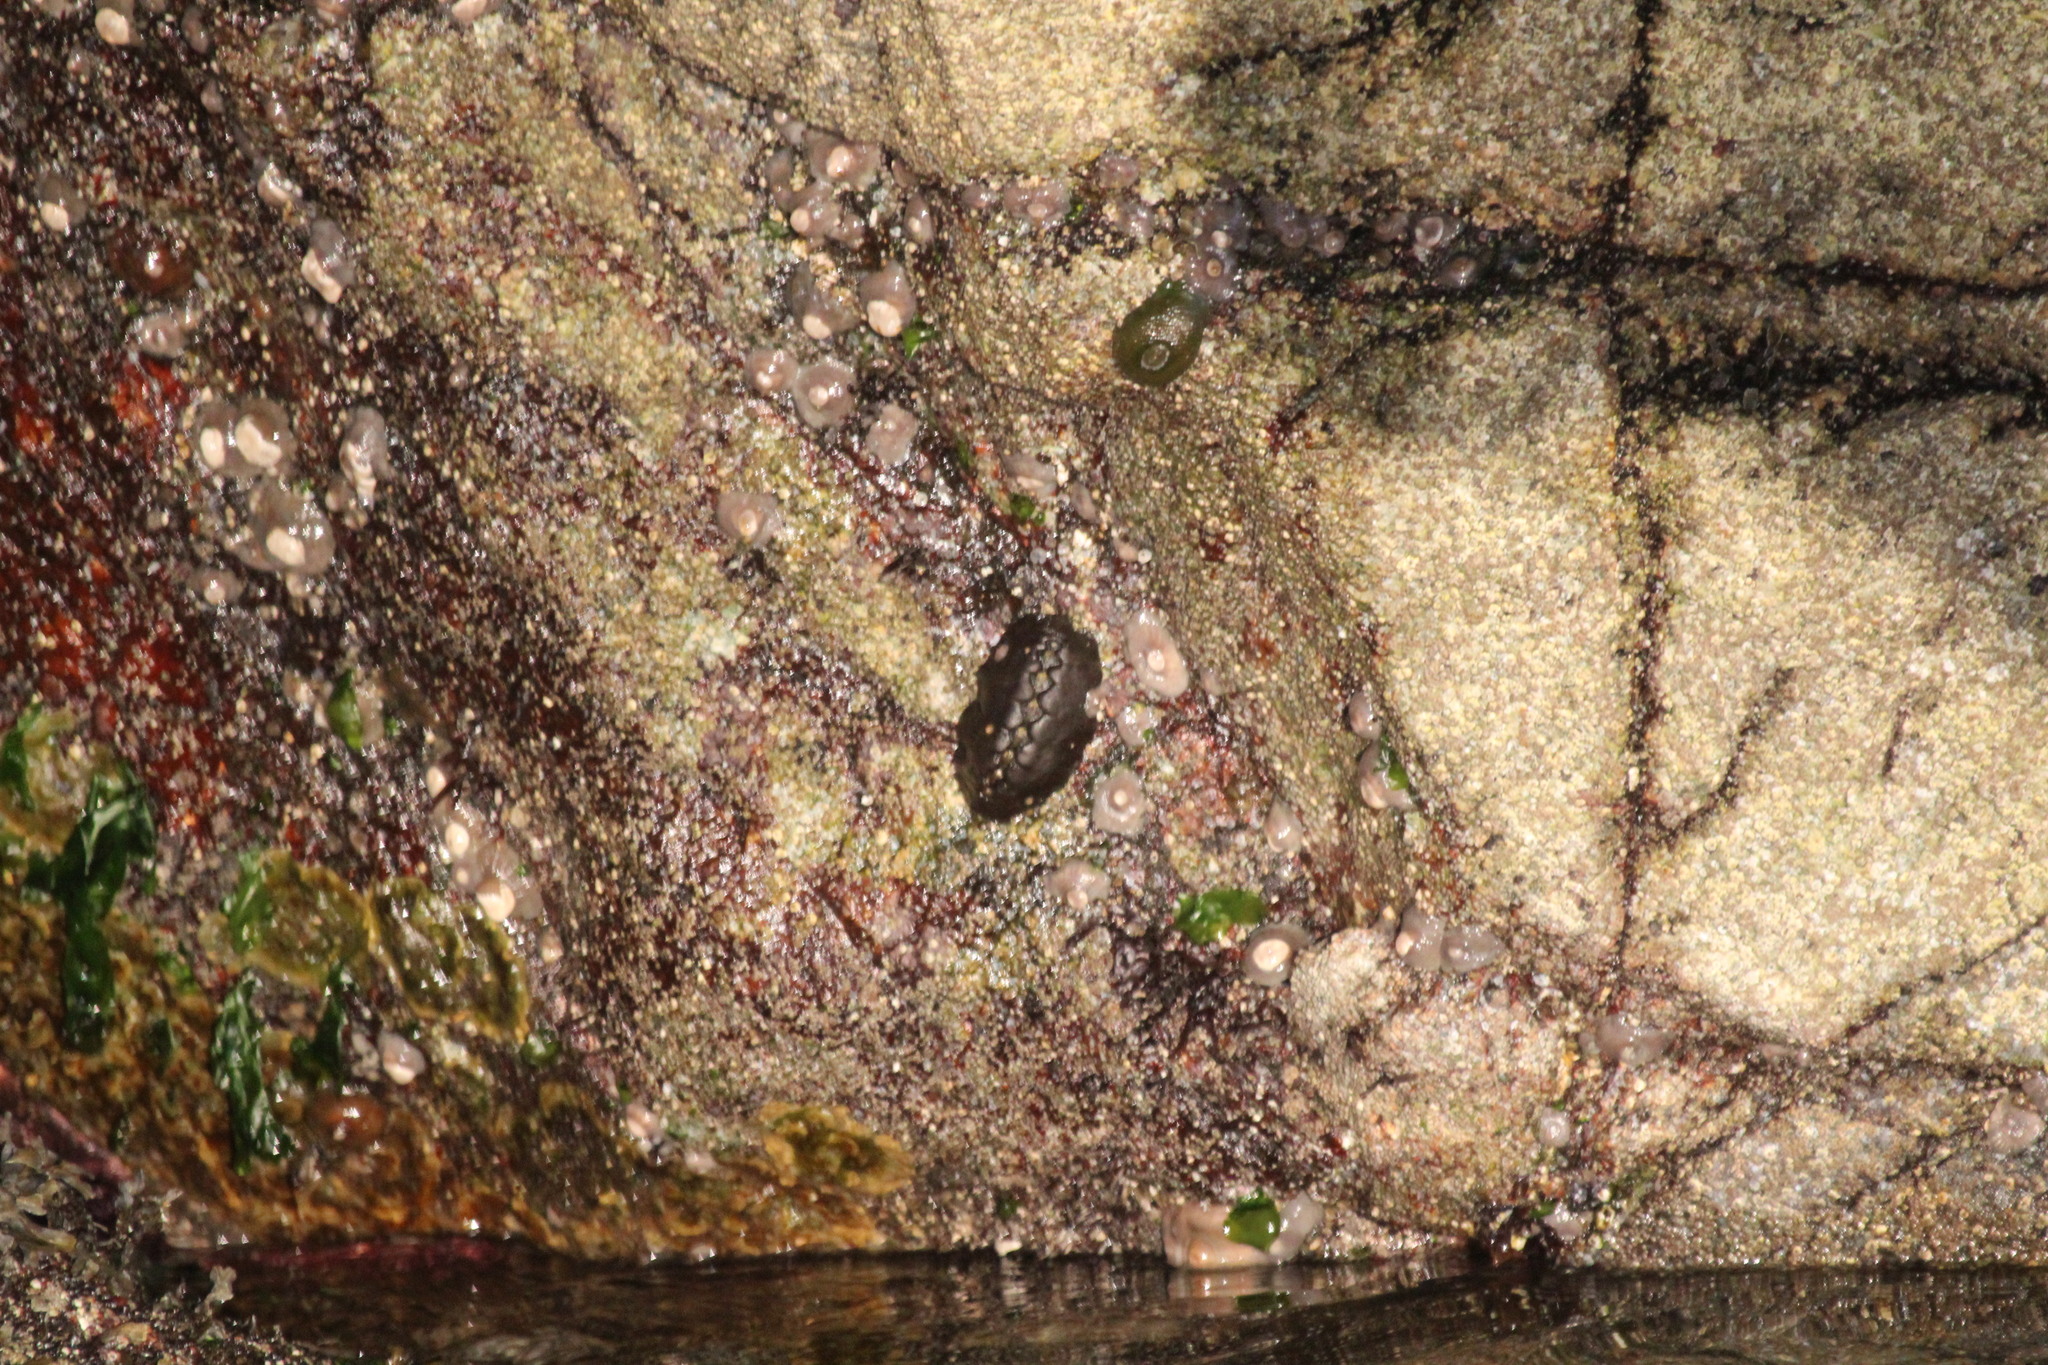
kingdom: Animalia
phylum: Mollusca
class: Polyplacophora
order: Chitonida
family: Mopaliidae
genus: Katharina
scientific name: Katharina tunicata
